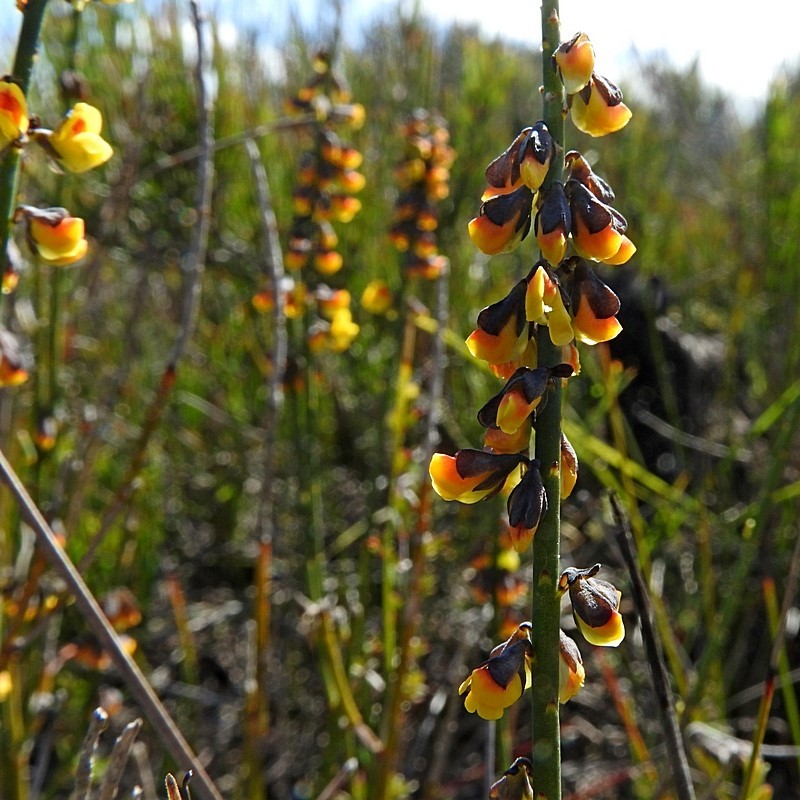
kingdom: Plantae
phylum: Tracheophyta
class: Magnoliopsida
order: Fabales
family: Fabaceae
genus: Sphaerolobium
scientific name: Sphaerolobium minus
